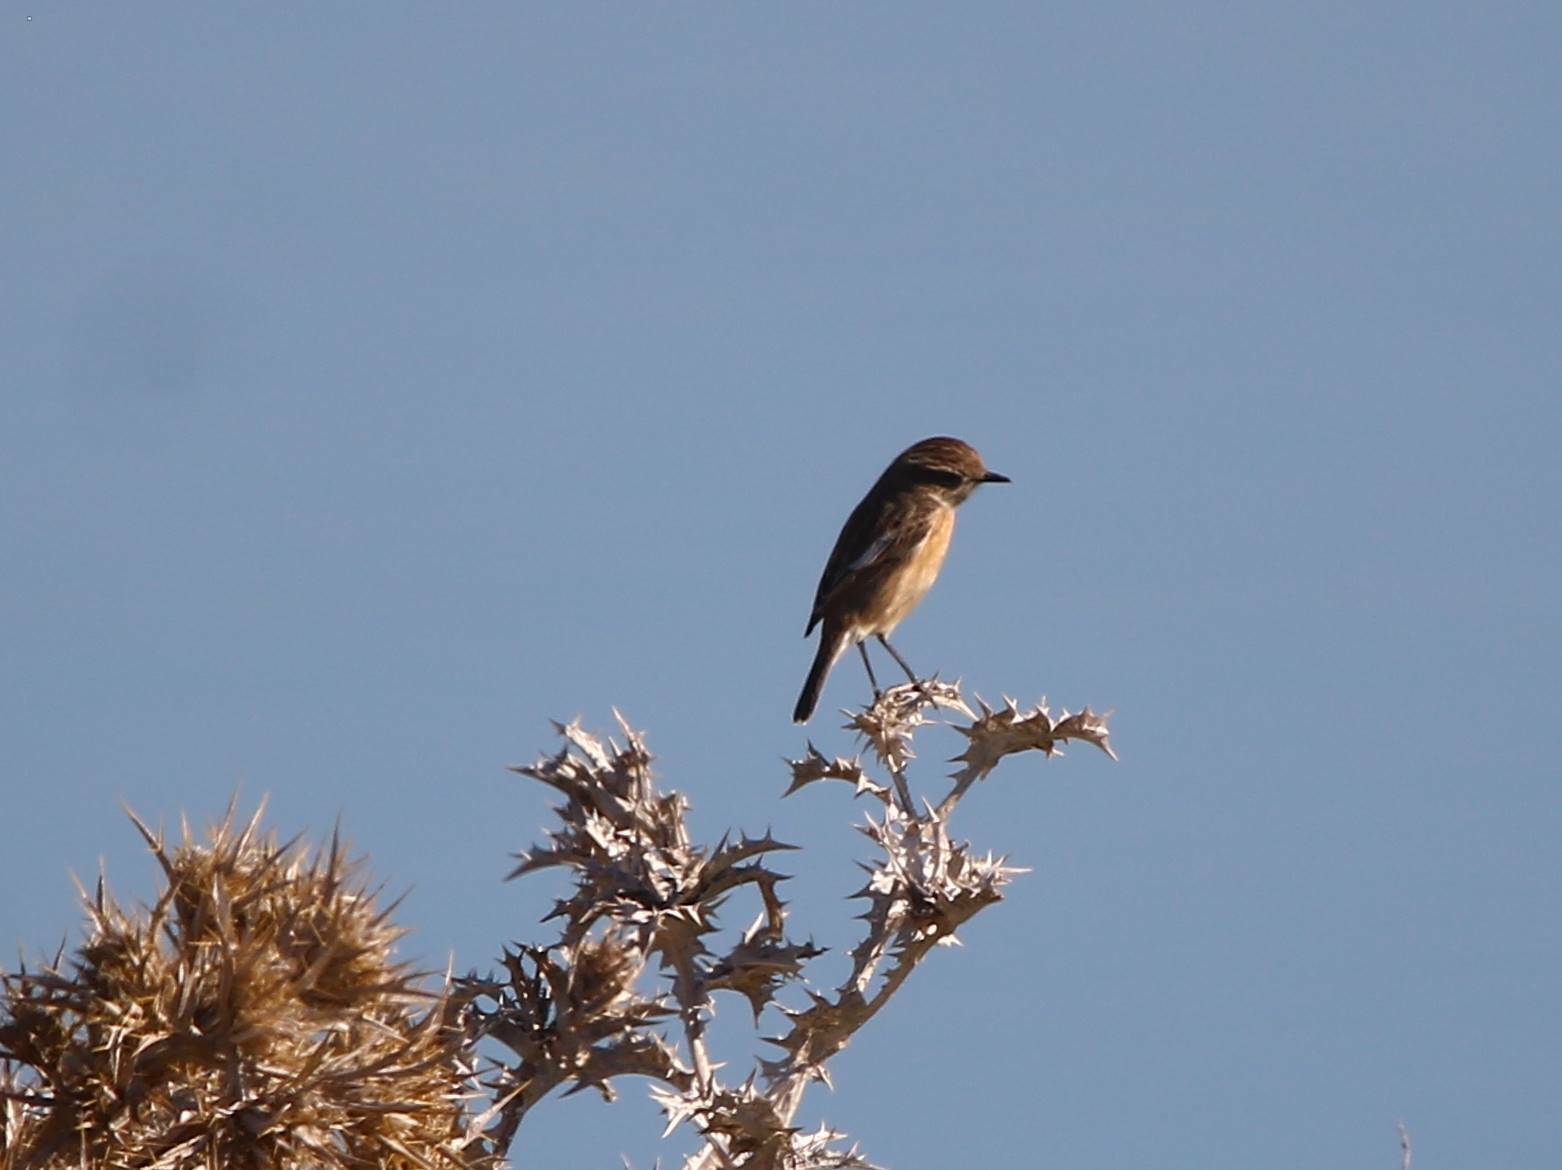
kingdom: Animalia
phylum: Chordata
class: Aves
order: Passeriformes
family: Muscicapidae
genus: Saxicola
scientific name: Saxicola rubicola
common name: European stonechat
